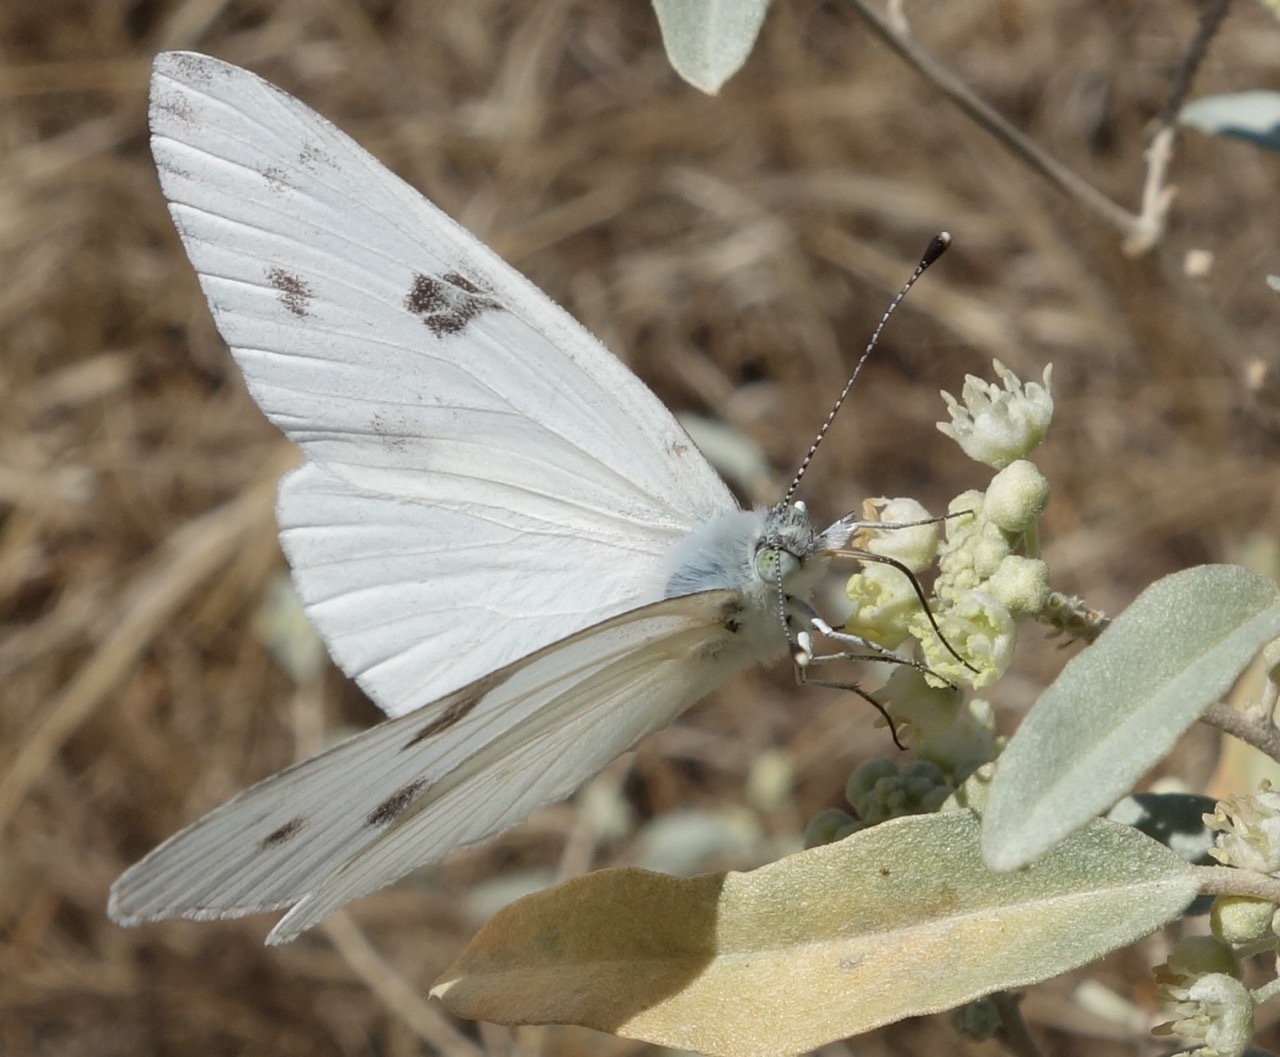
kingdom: Animalia
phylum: Arthropoda
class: Insecta
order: Lepidoptera
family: Pieridae
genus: Pontia
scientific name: Pontia protodice
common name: Checkered white
